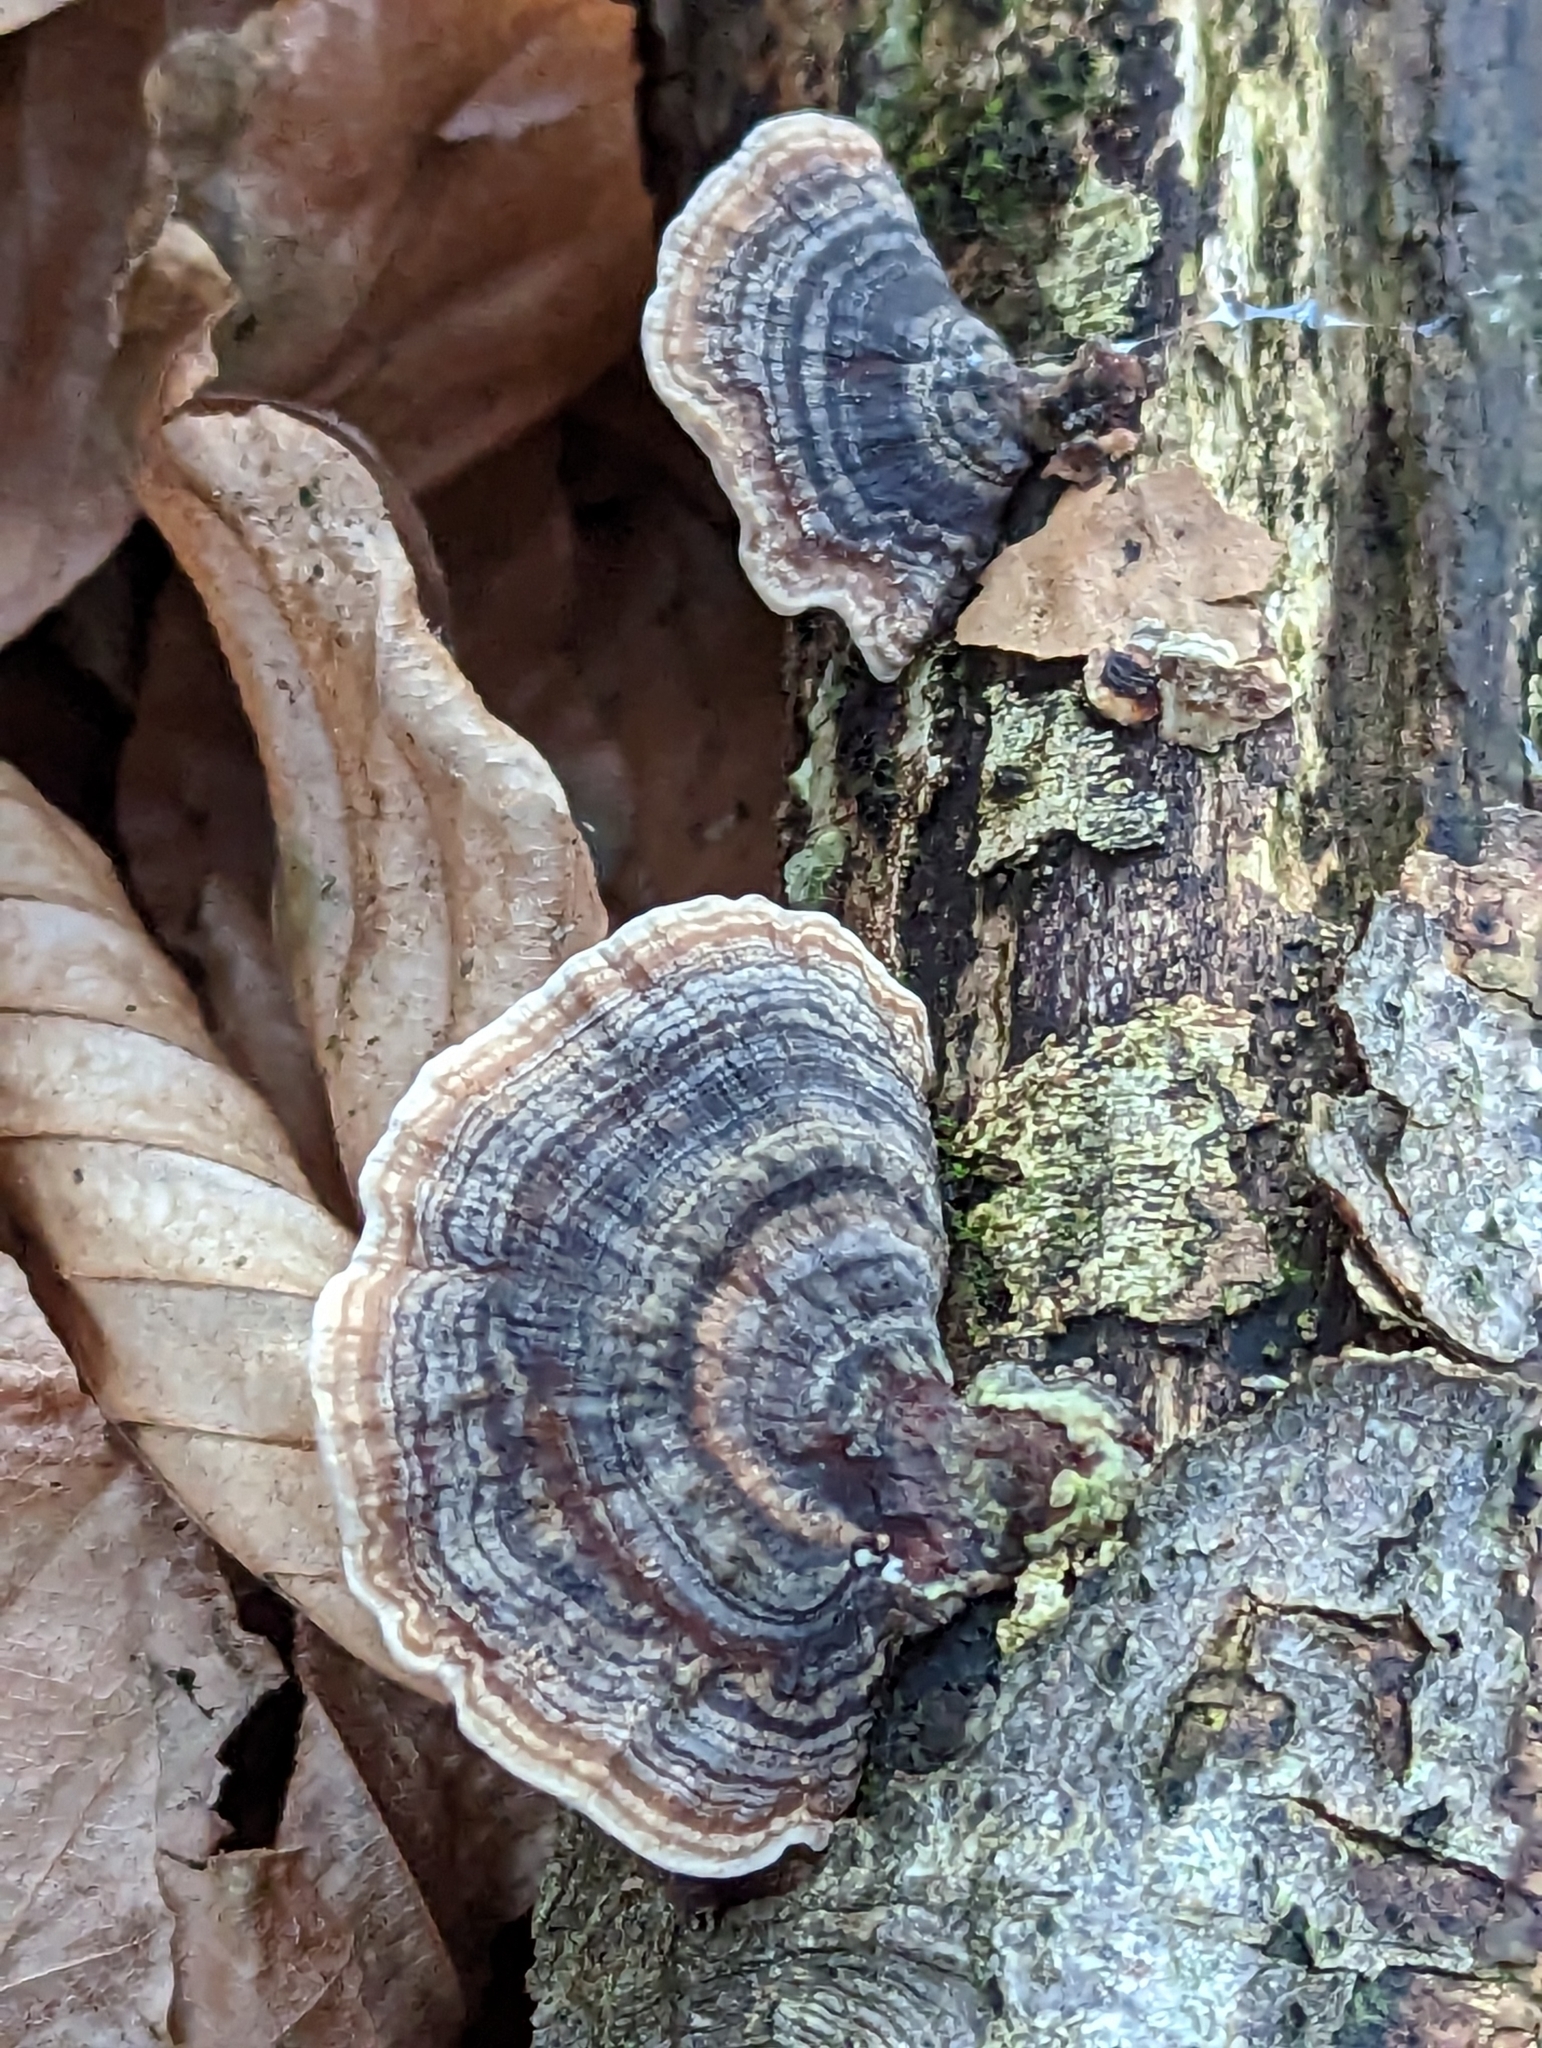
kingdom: Fungi
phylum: Basidiomycota
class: Agaricomycetes
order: Polyporales
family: Polyporaceae
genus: Trametes
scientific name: Trametes versicolor
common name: Turkeytail
